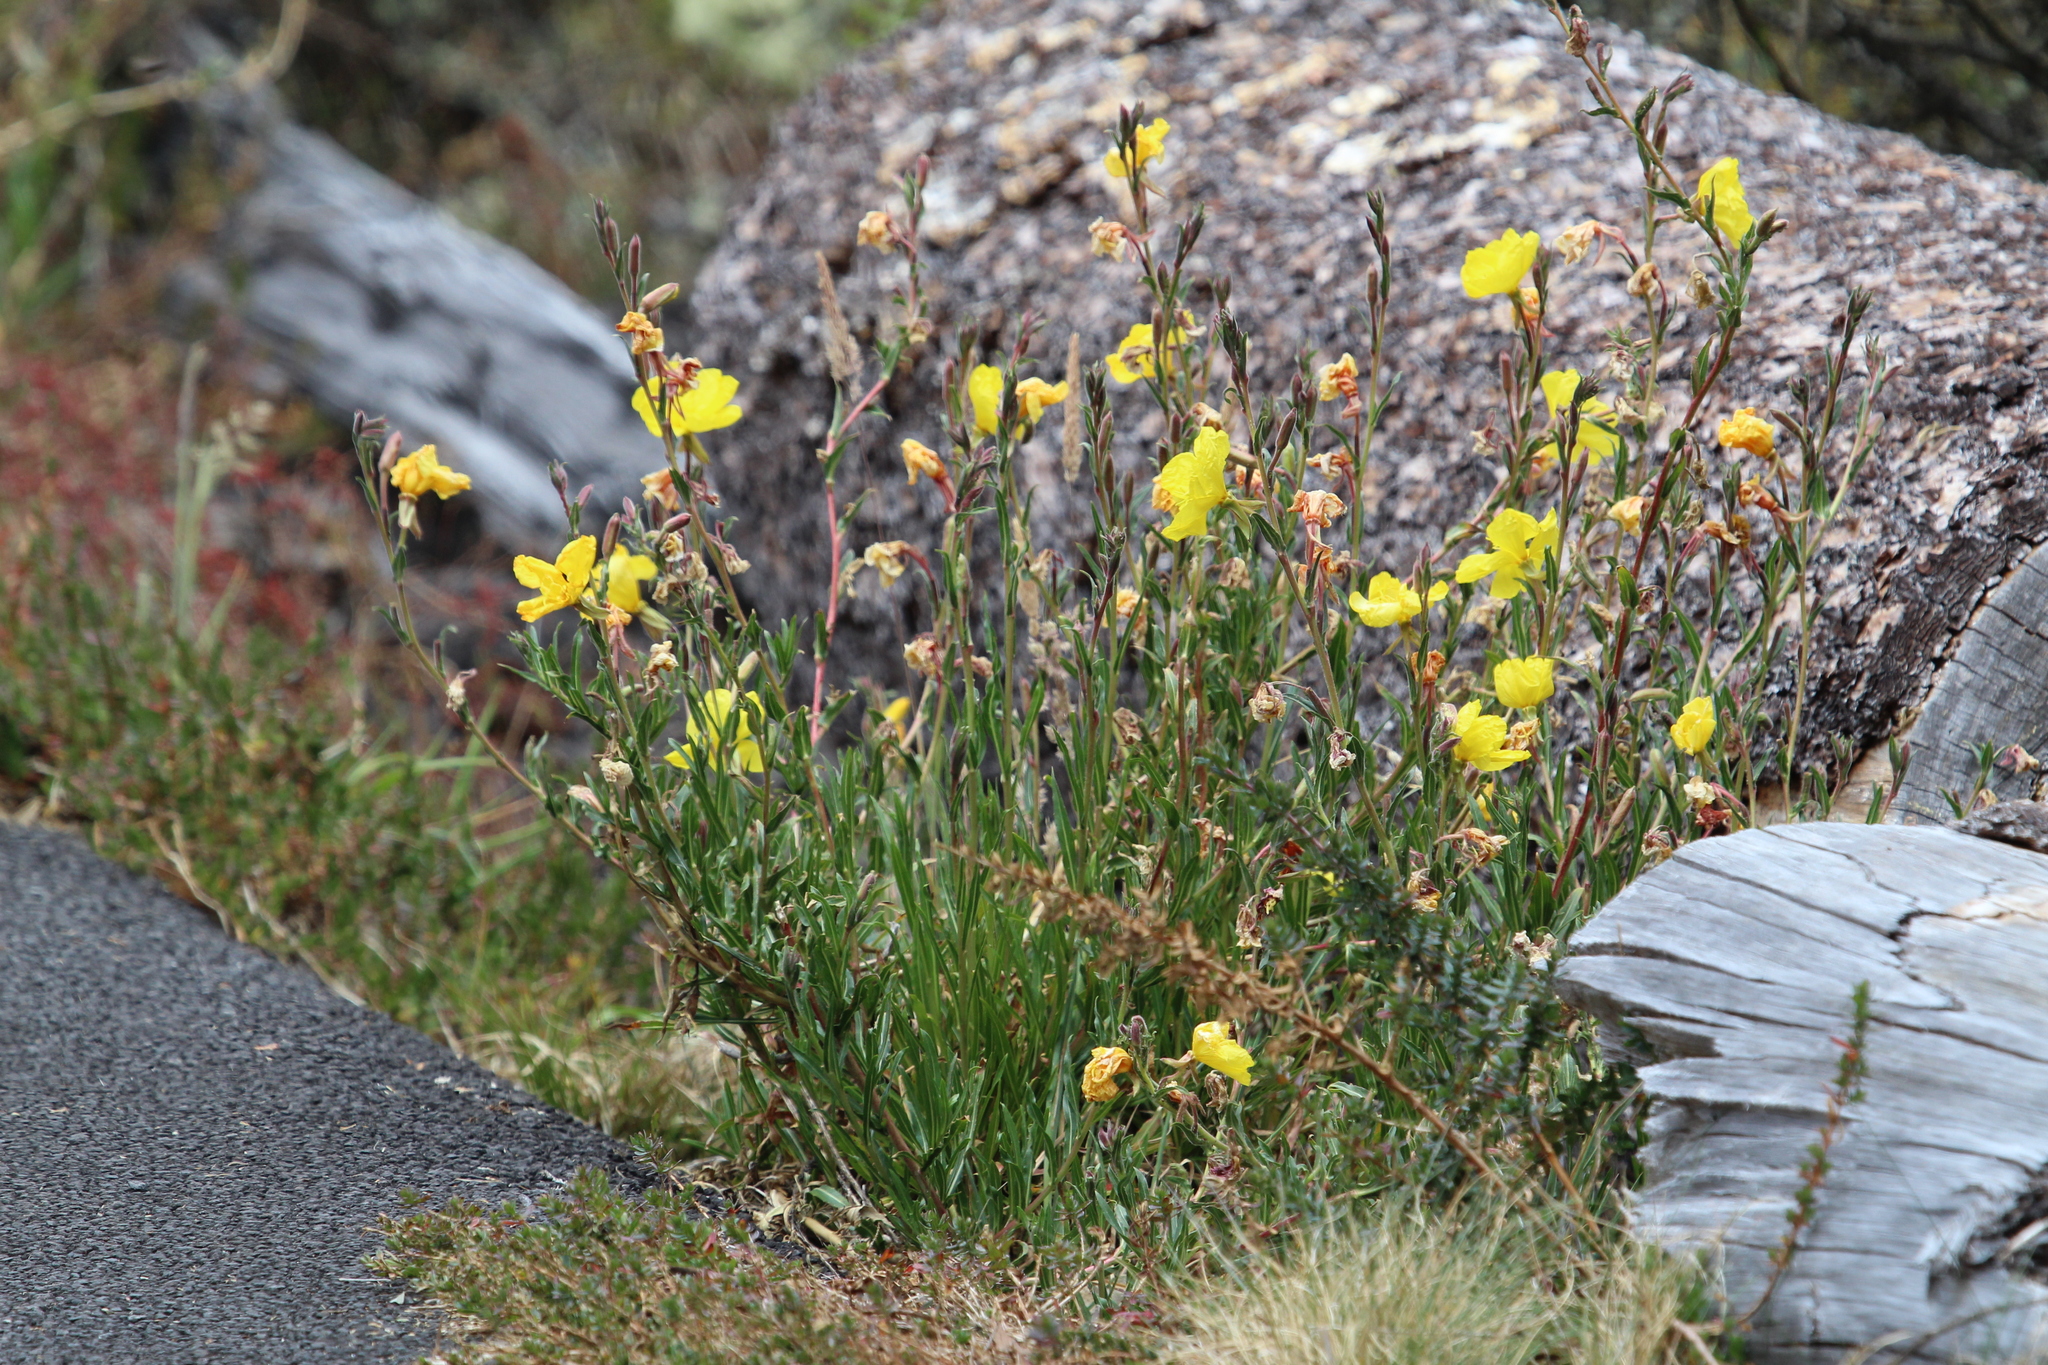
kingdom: Plantae
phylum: Tracheophyta
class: Magnoliopsida
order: Myrtales
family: Onagraceae
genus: Oenothera
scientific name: Oenothera stricta
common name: Fragrant evening-primrose
